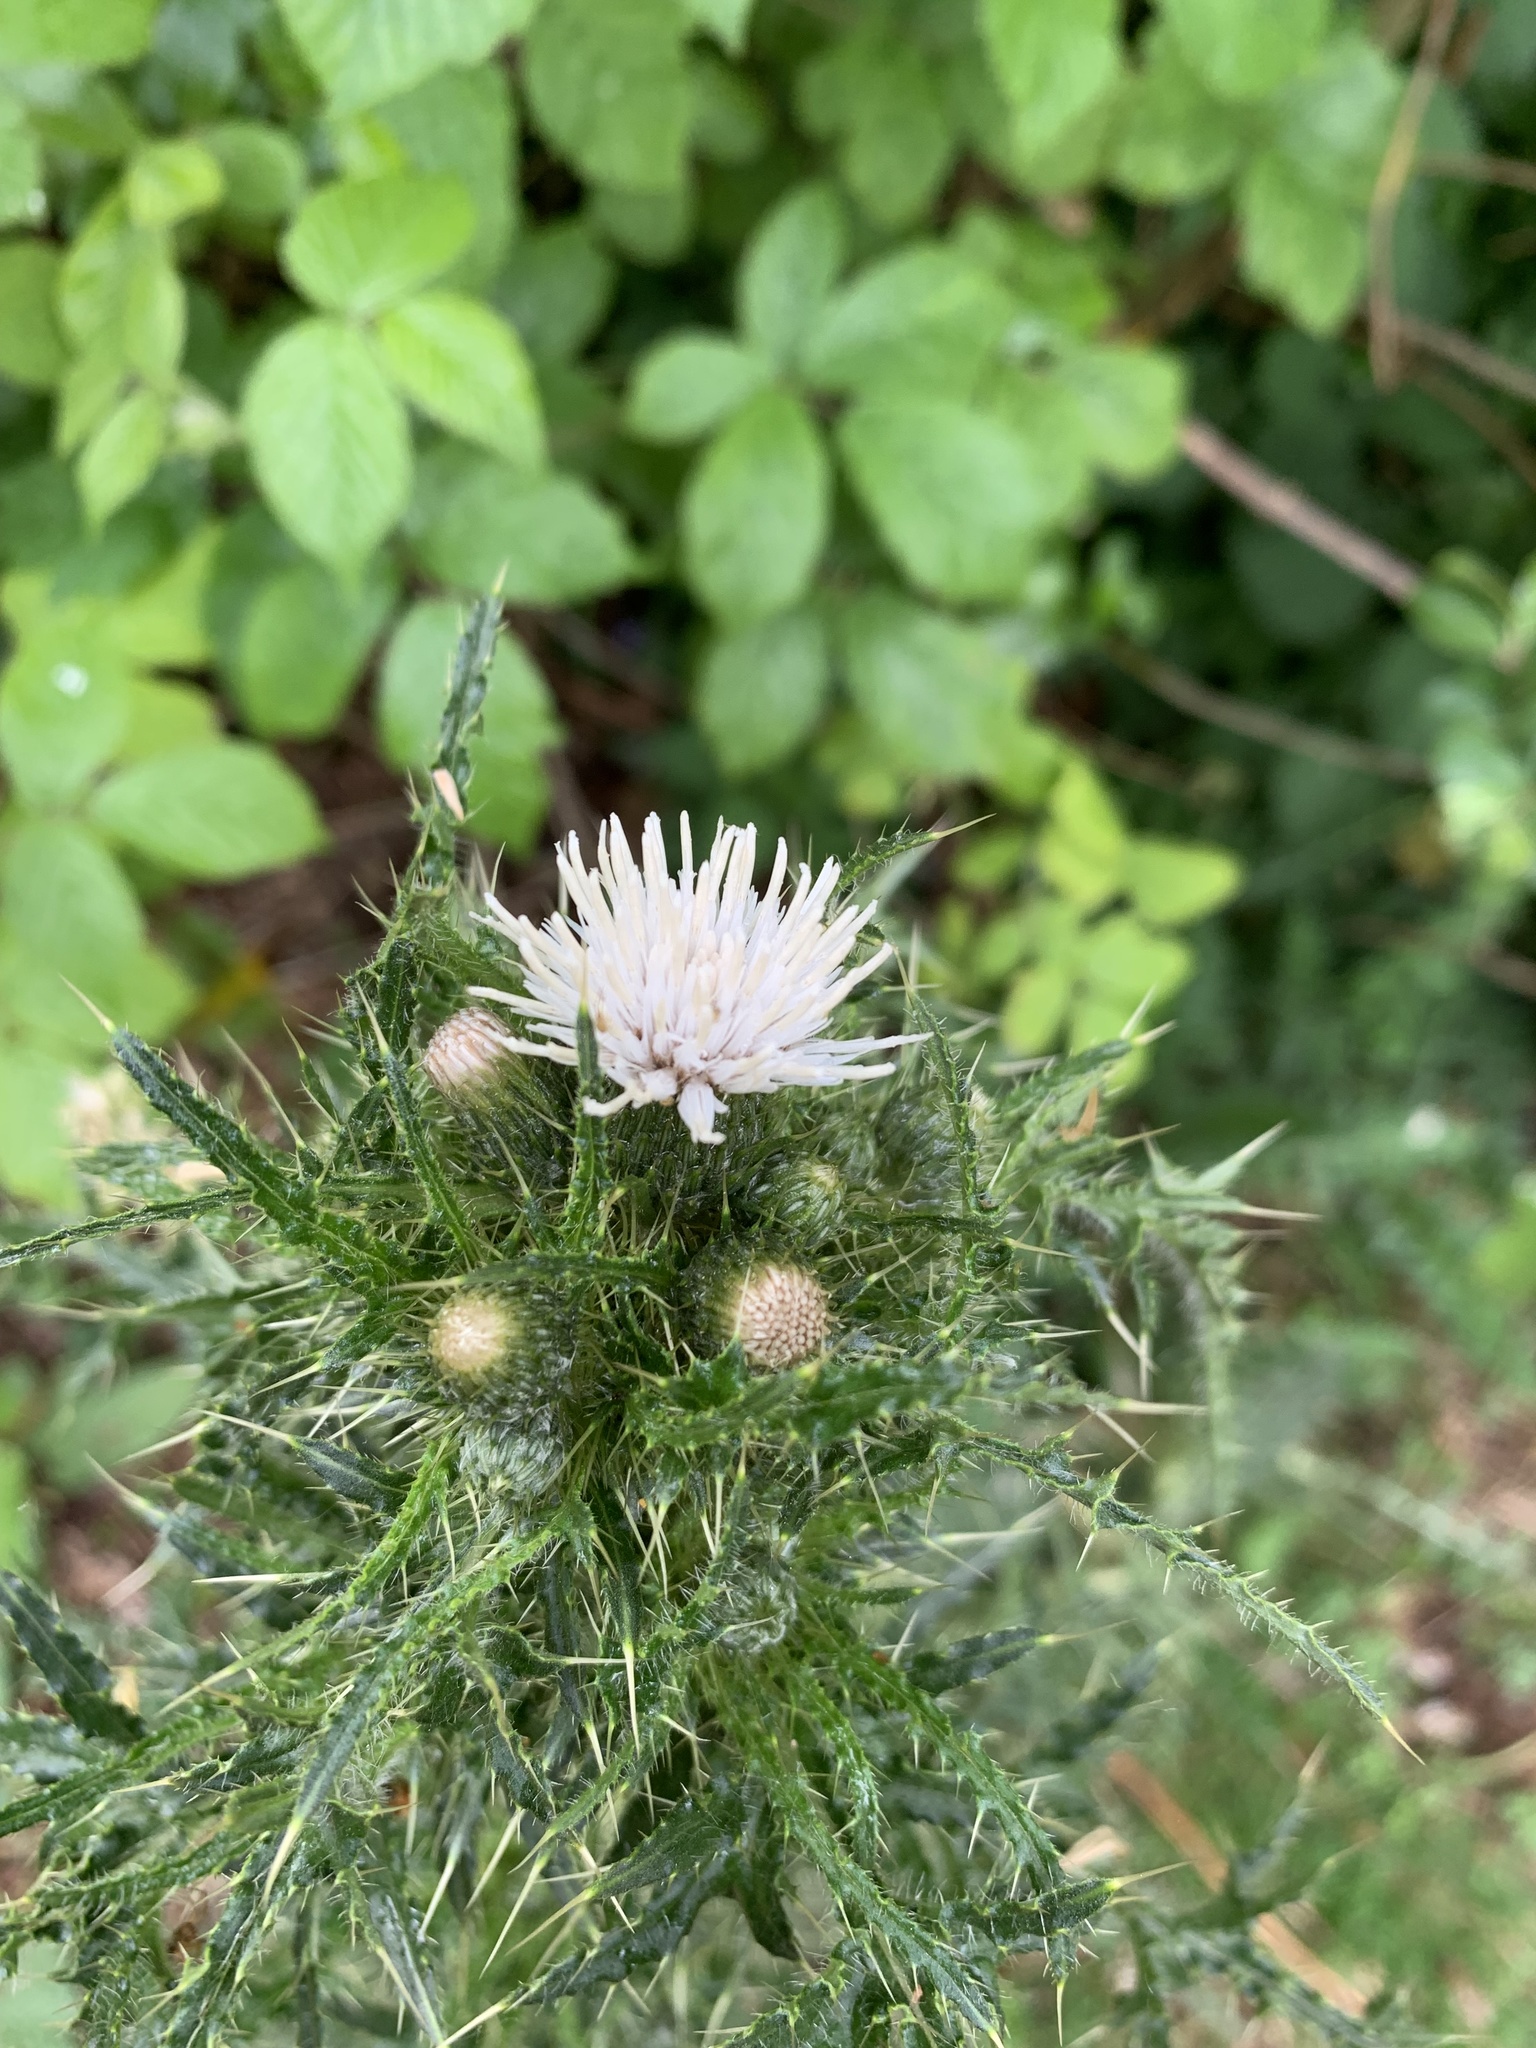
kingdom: Plantae
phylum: Tracheophyta
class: Magnoliopsida
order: Asterales
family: Asteraceae
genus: Cirsium
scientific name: Cirsium palustre
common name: Marsh thistle
